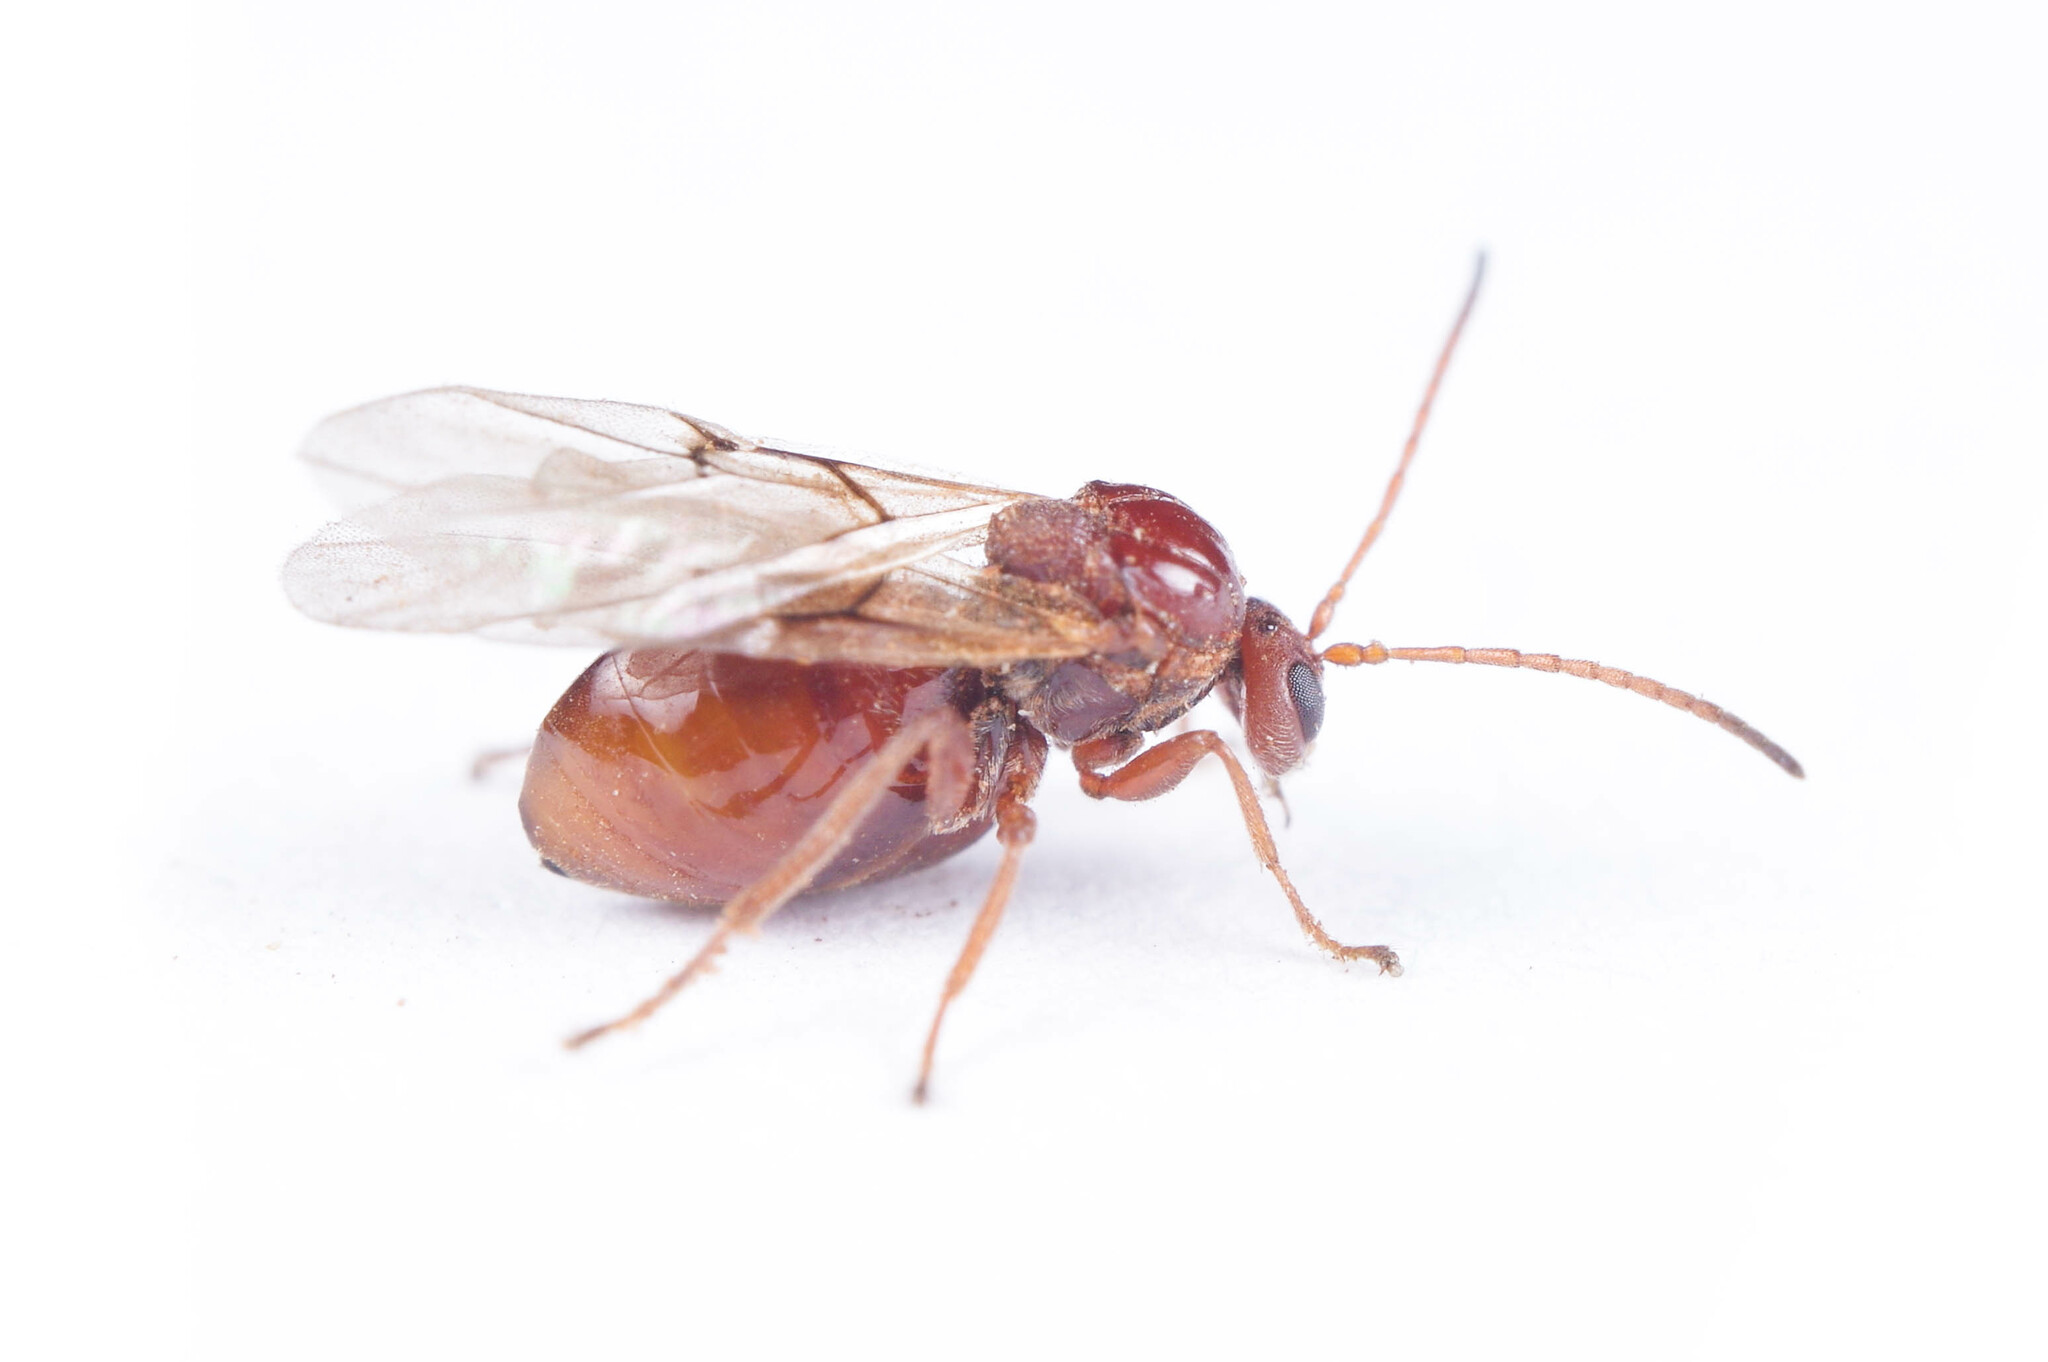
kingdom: Animalia
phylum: Arthropoda
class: Insecta
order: Hymenoptera
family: Cynipidae
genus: Kokkocynips
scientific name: Kokkocynips imbricariae
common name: Banded bullet gall wasp
